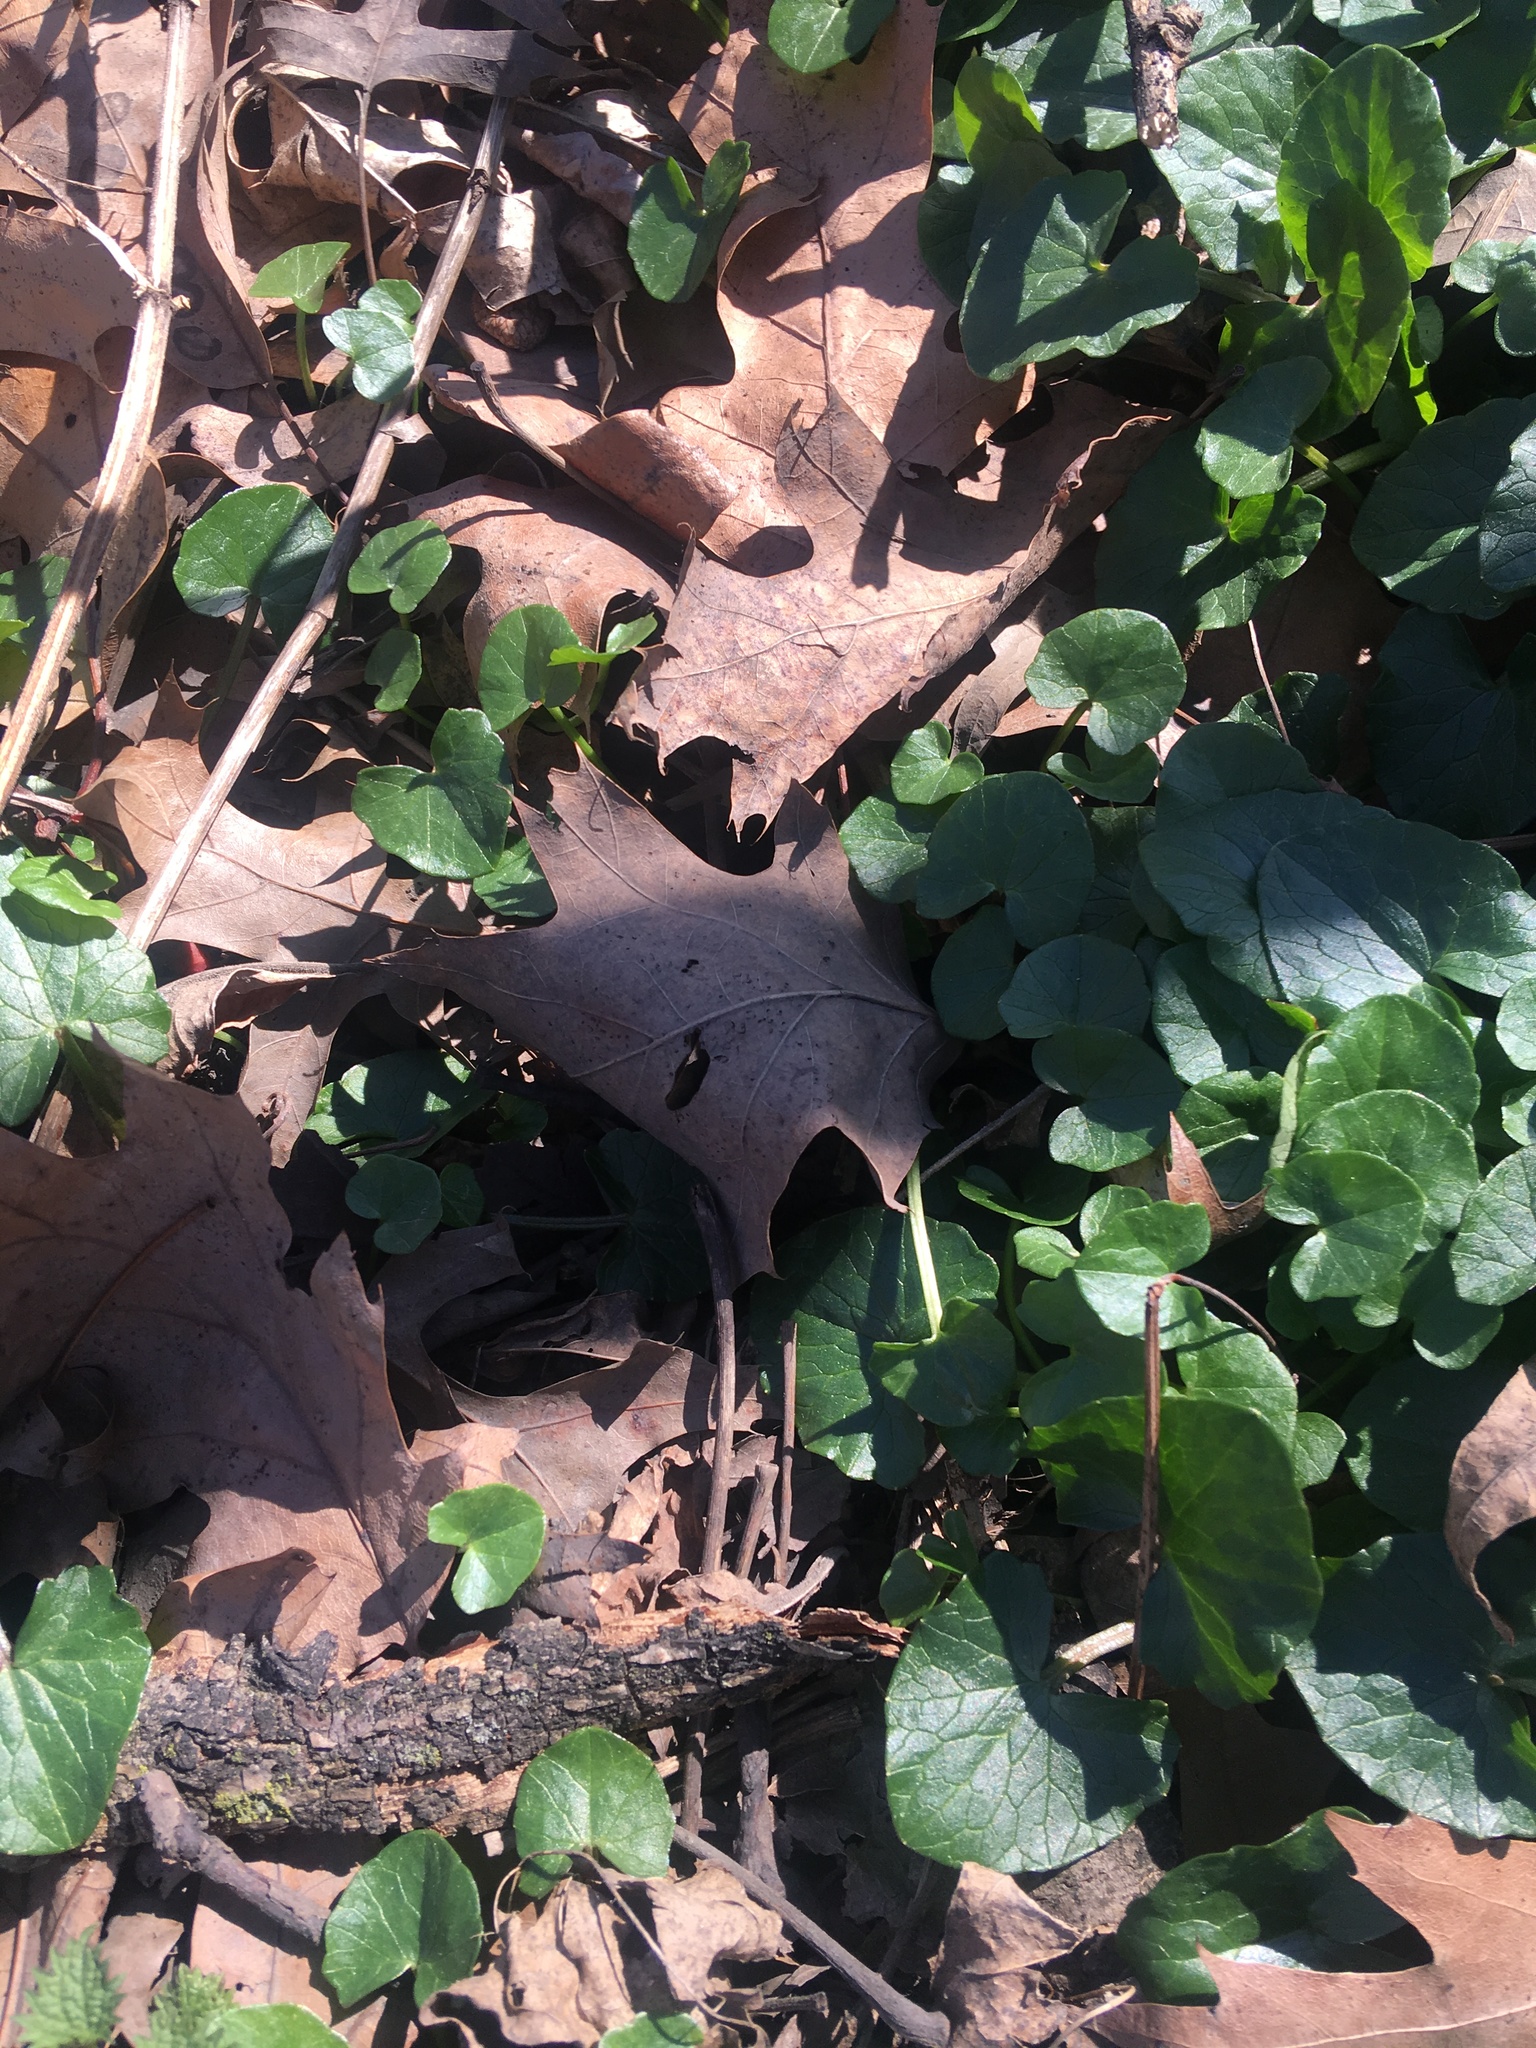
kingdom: Plantae
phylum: Tracheophyta
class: Magnoliopsida
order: Ranunculales
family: Ranunculaceae
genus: Ficaria
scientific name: Ficaria verna
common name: Lesser celandine
